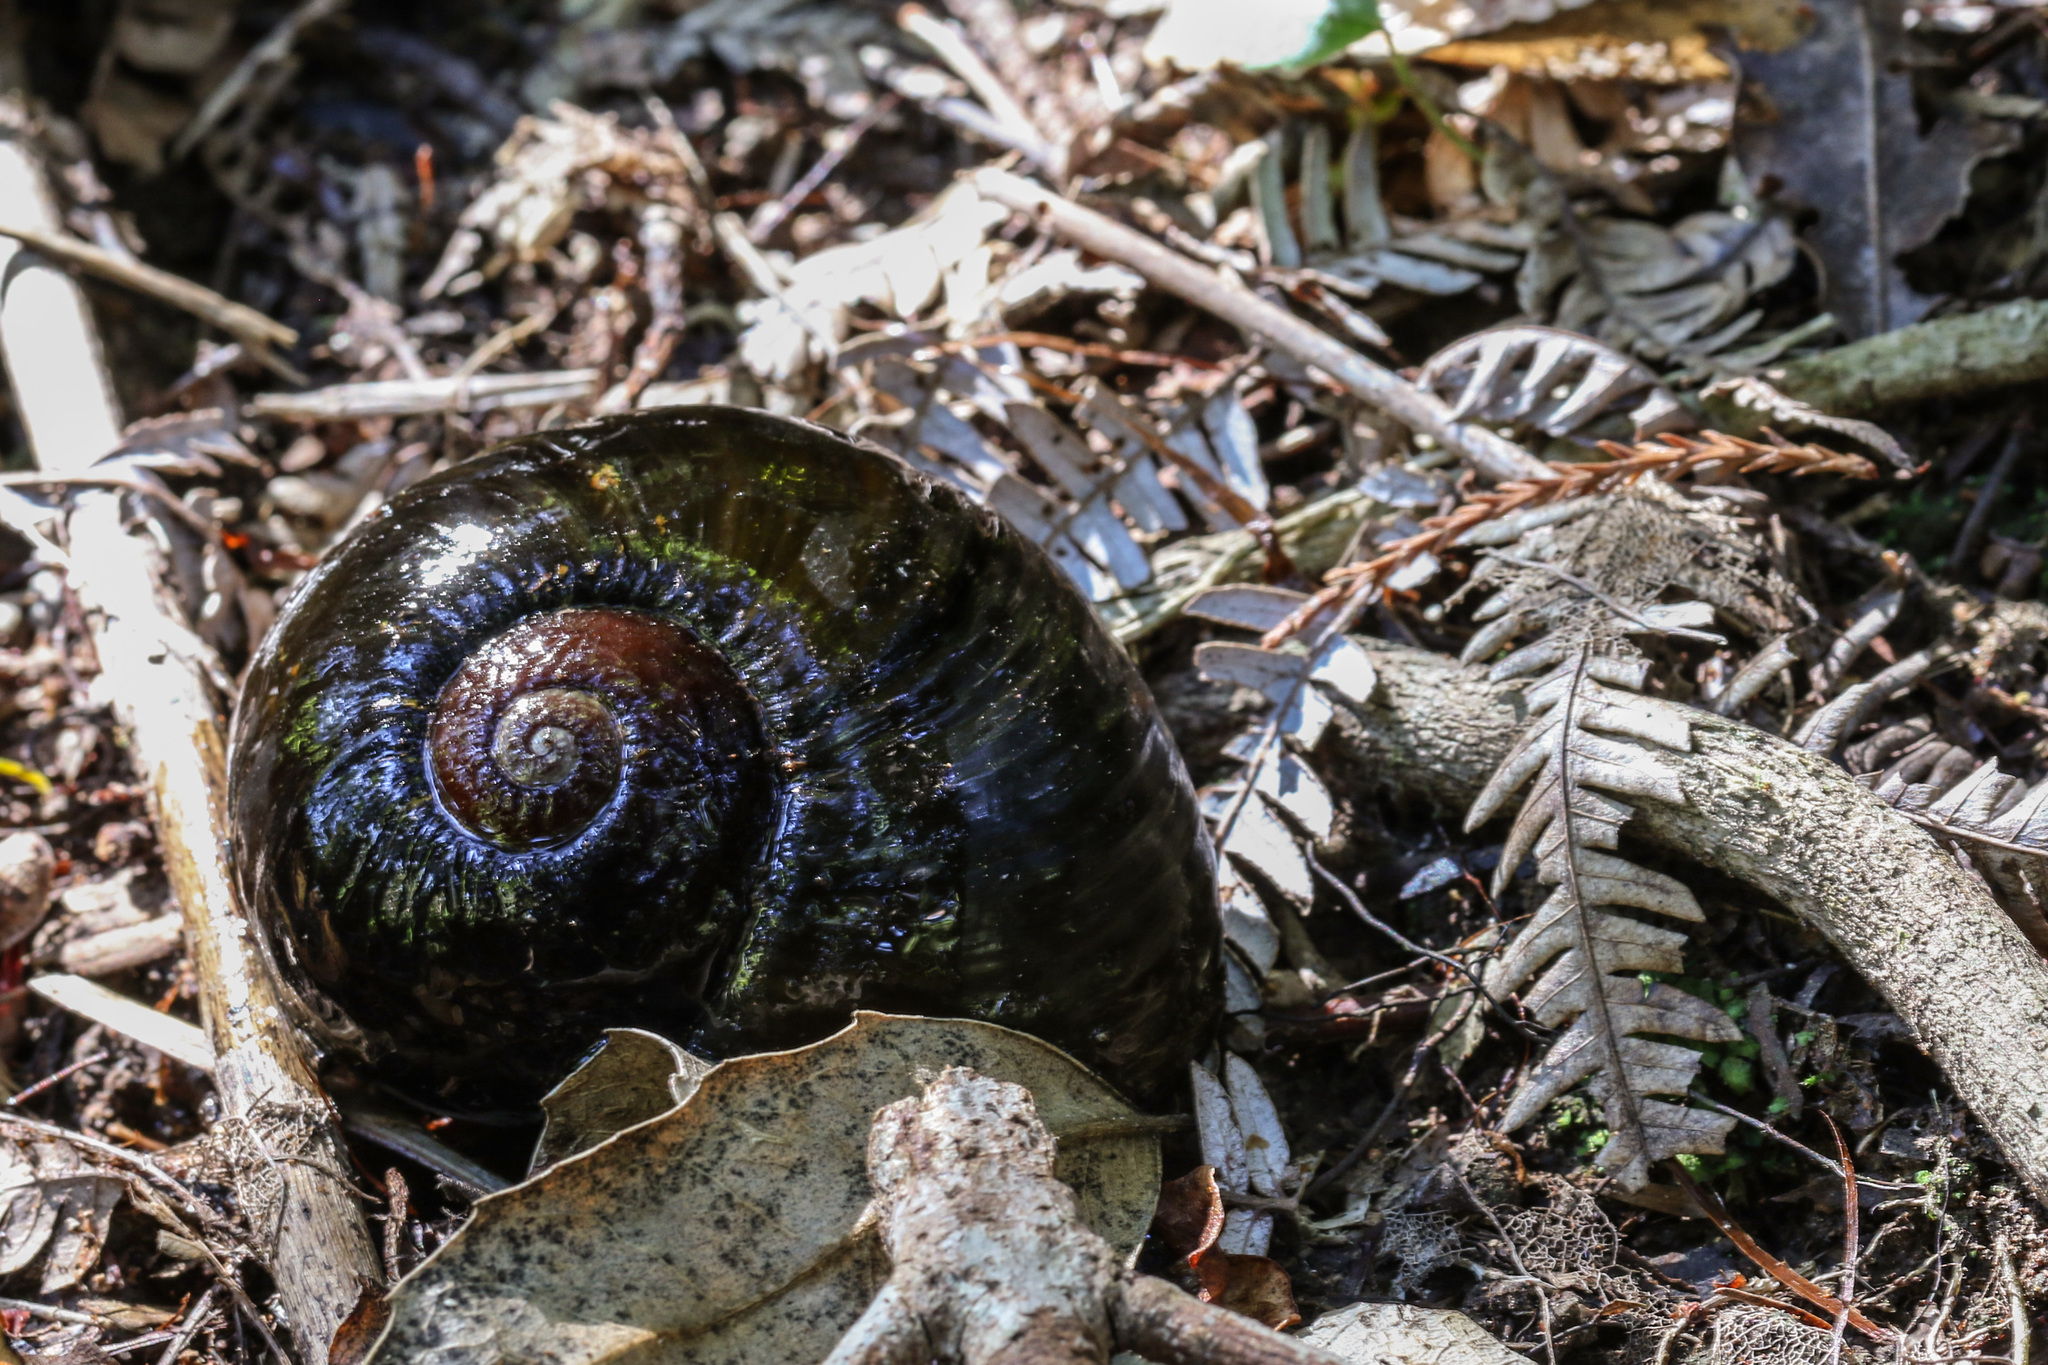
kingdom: Animalia
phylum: Mollusca
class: Gastropoda
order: Stylommatophora
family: Rhytididae
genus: Paryphanta
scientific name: Paryphanta busbyi
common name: Kauri snail
